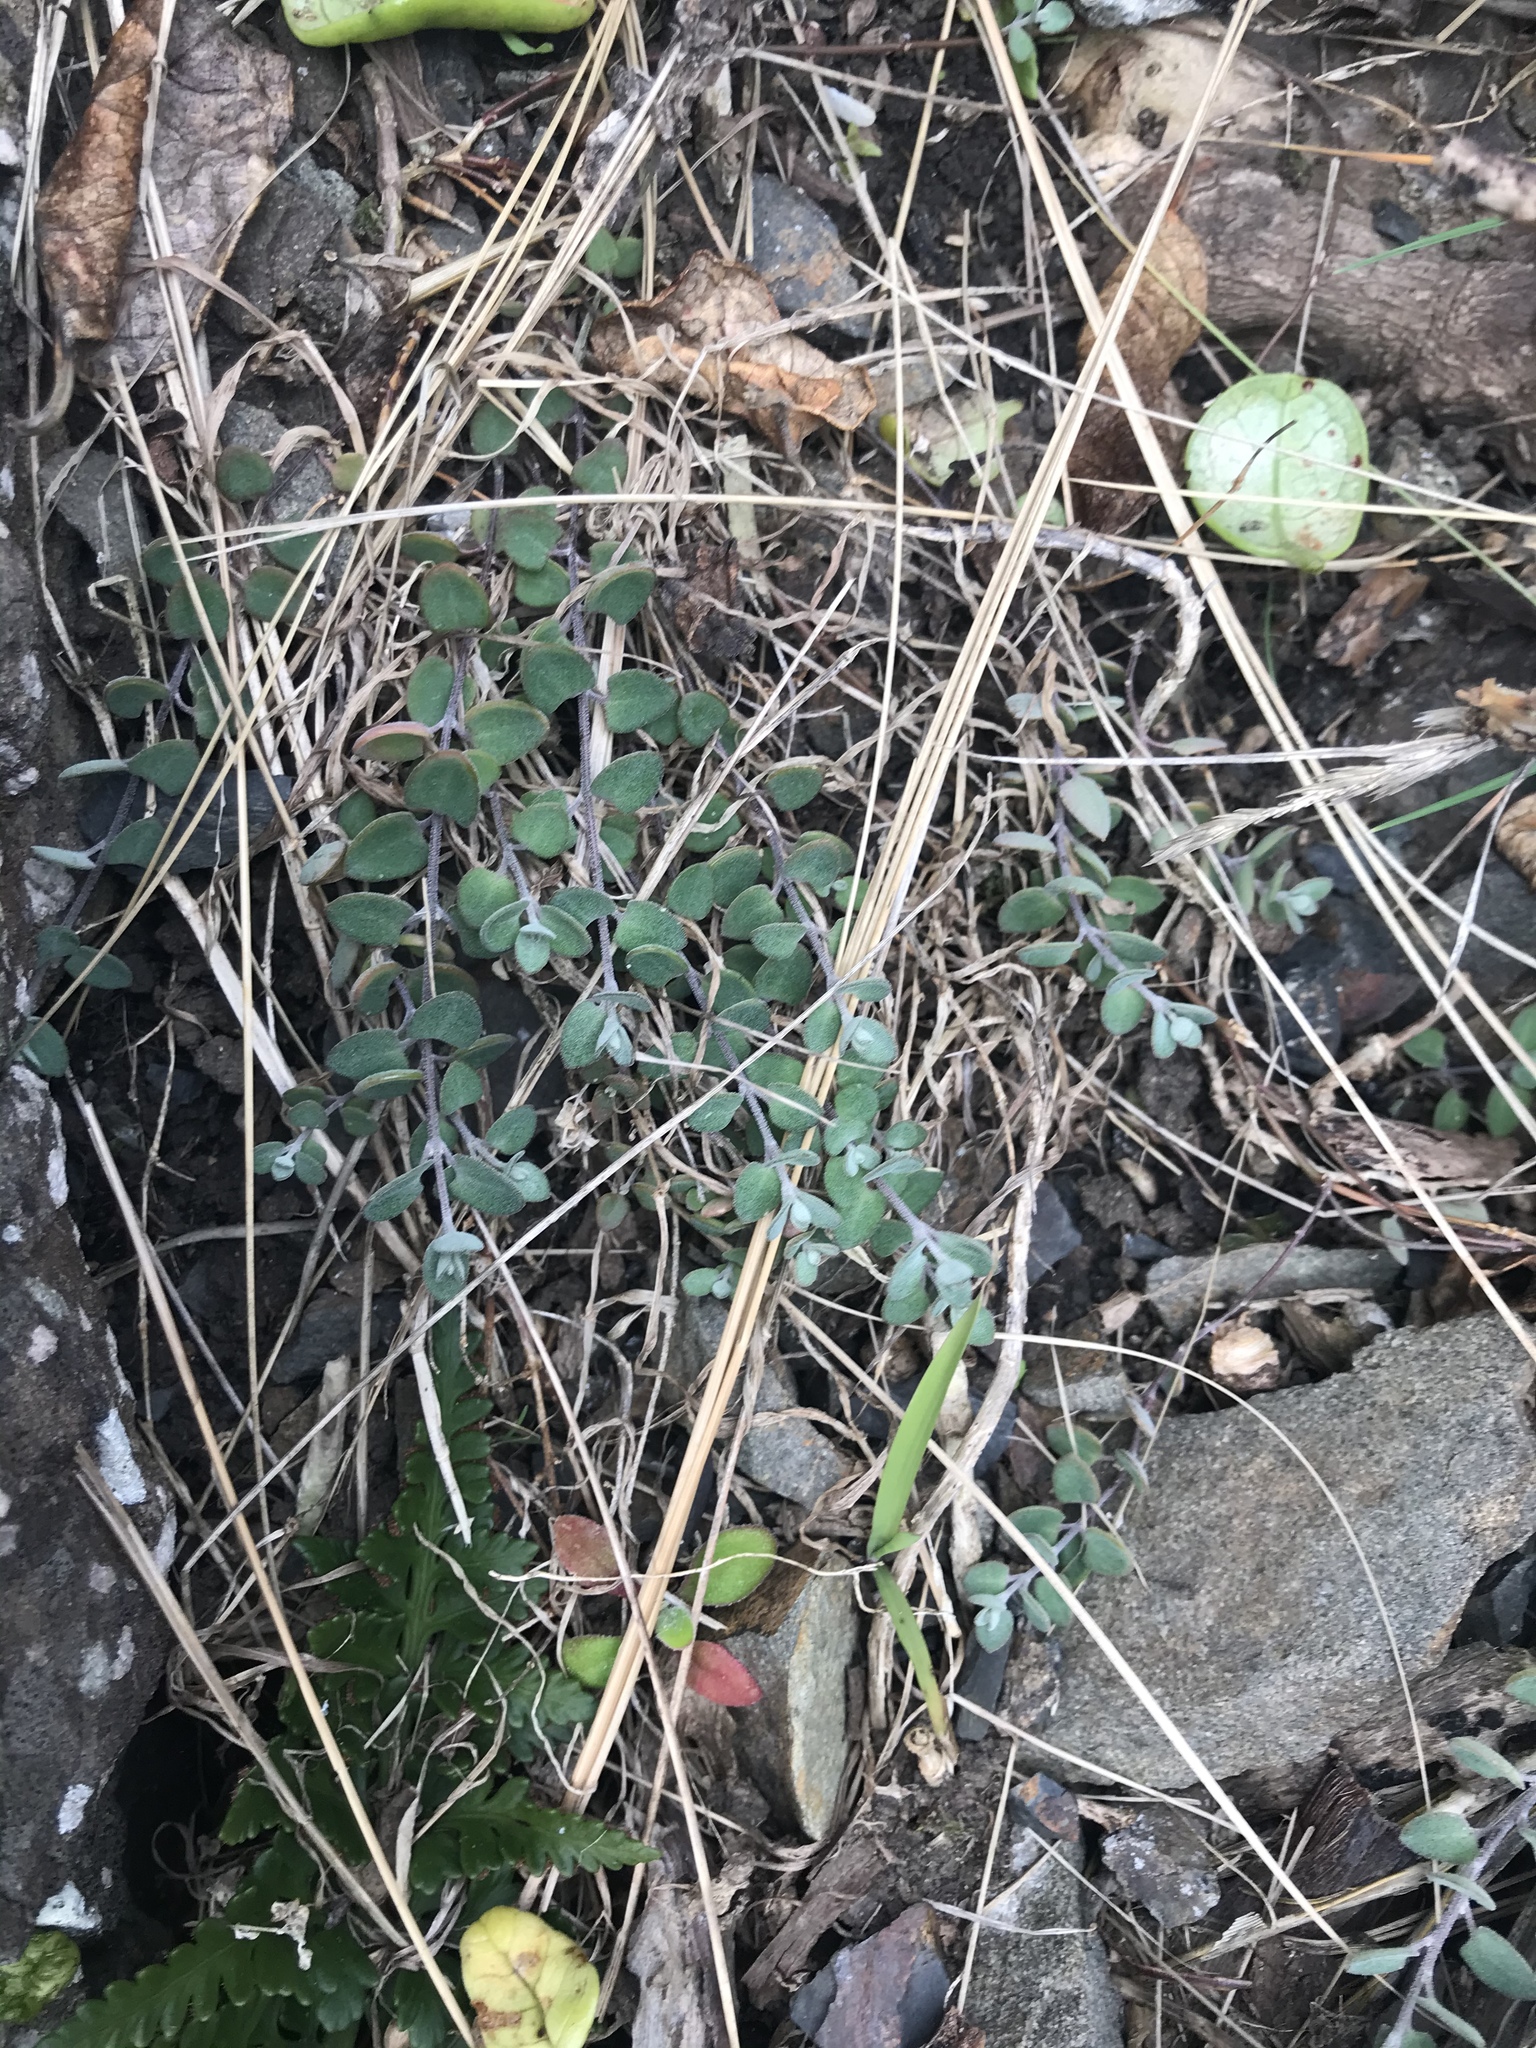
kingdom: Plantae
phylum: Tracheophyta
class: Magnoliopsida
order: Caryophyllales
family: Amaranthaceae
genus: Chenopodium
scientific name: Chenopodium allanii
